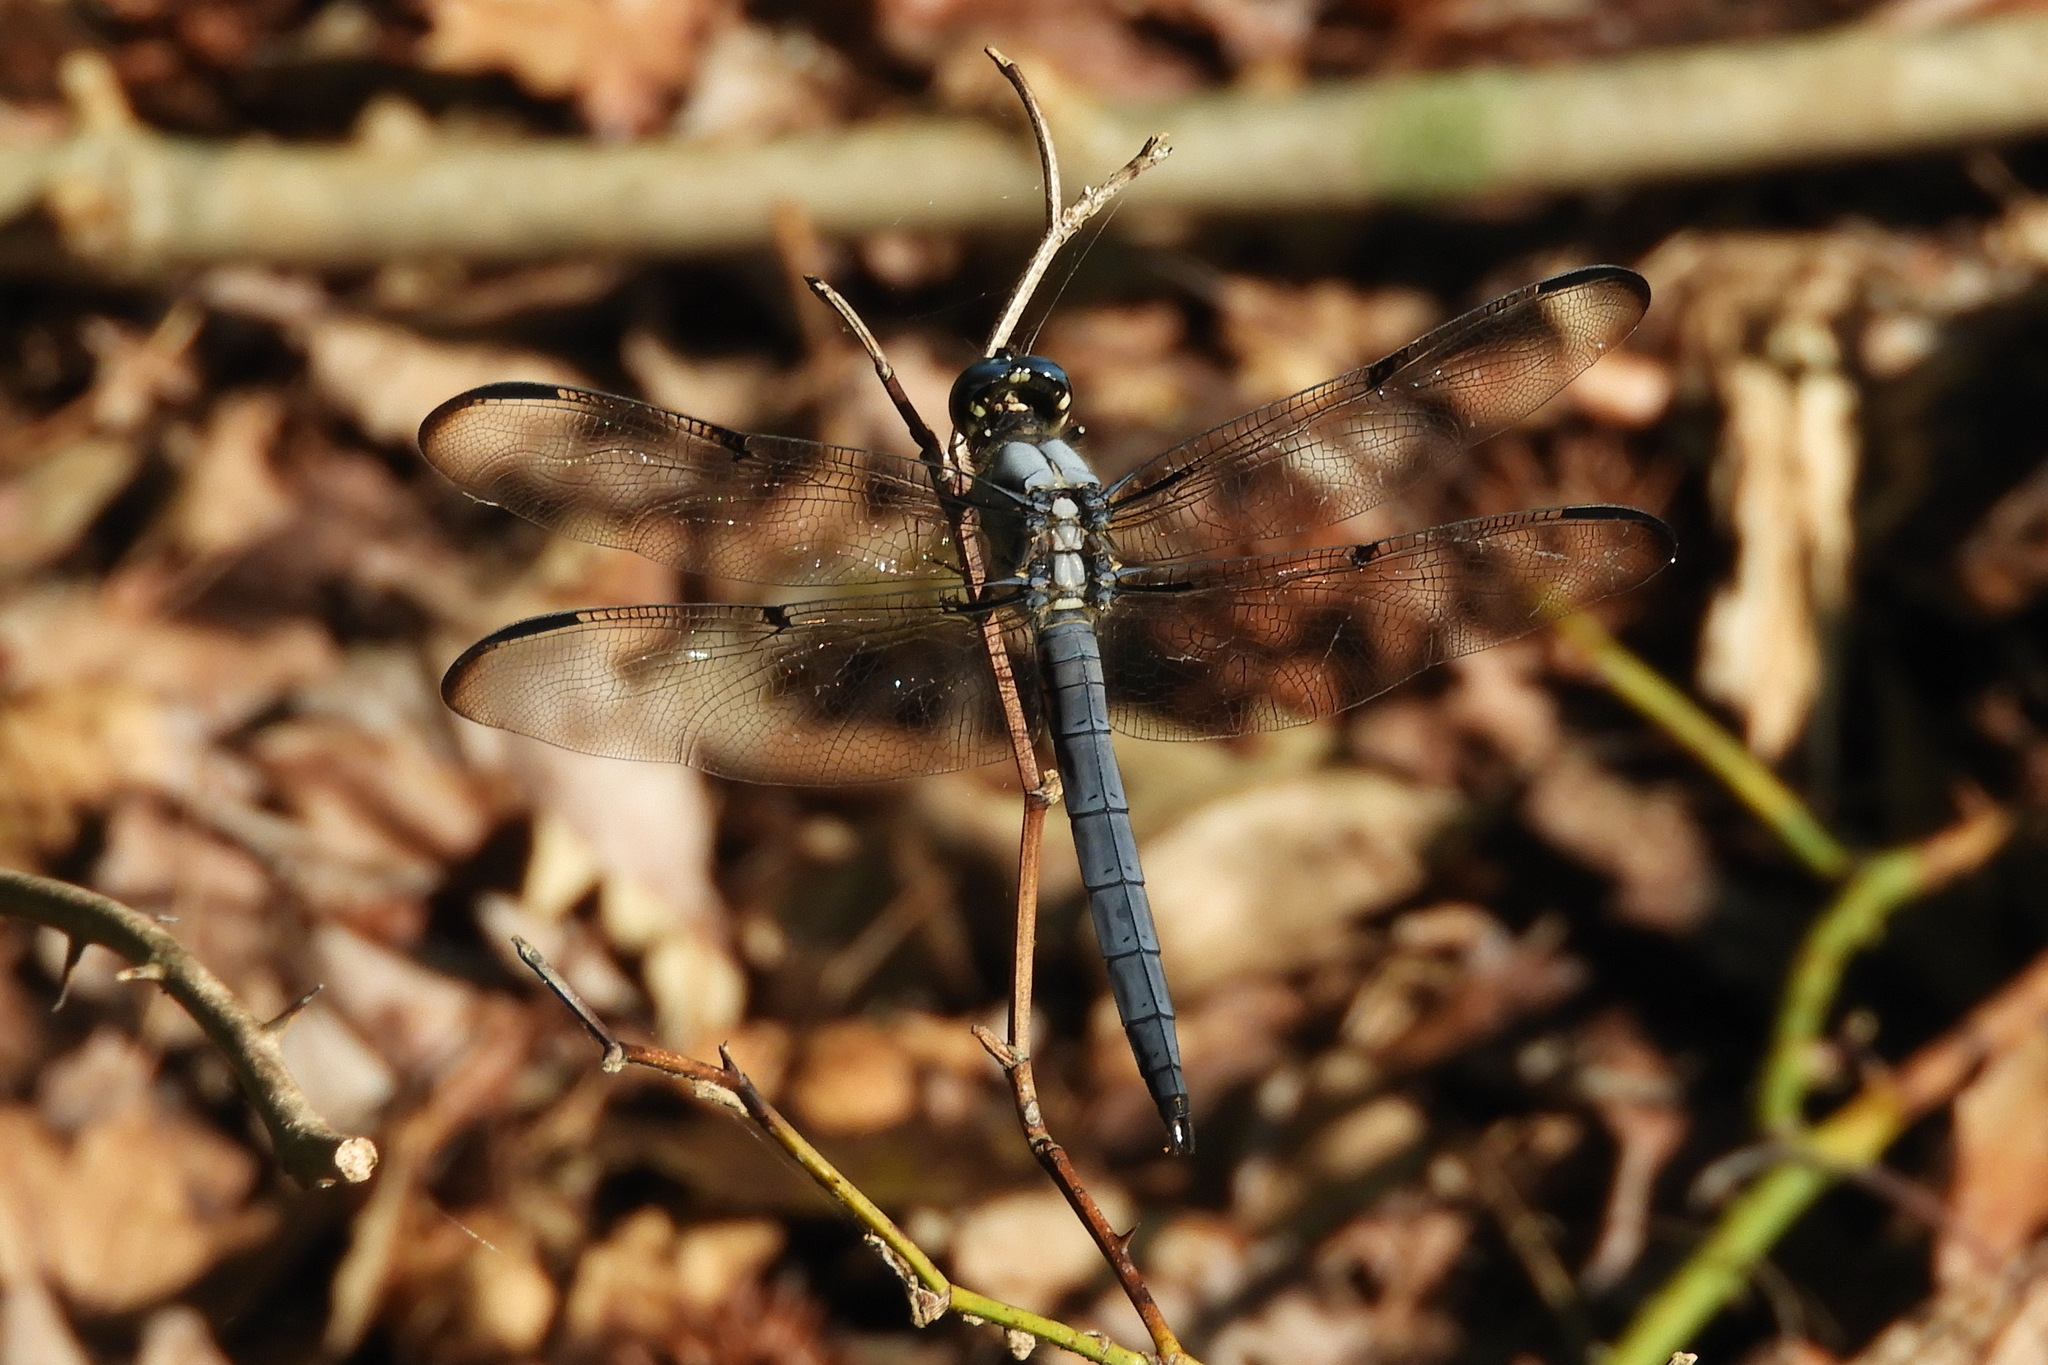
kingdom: Animalia
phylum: Arthropoda
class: Insecta
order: Odonata
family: Libellulidae
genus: Libellula
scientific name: Libellula vibrans
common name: Great blue skimmer
